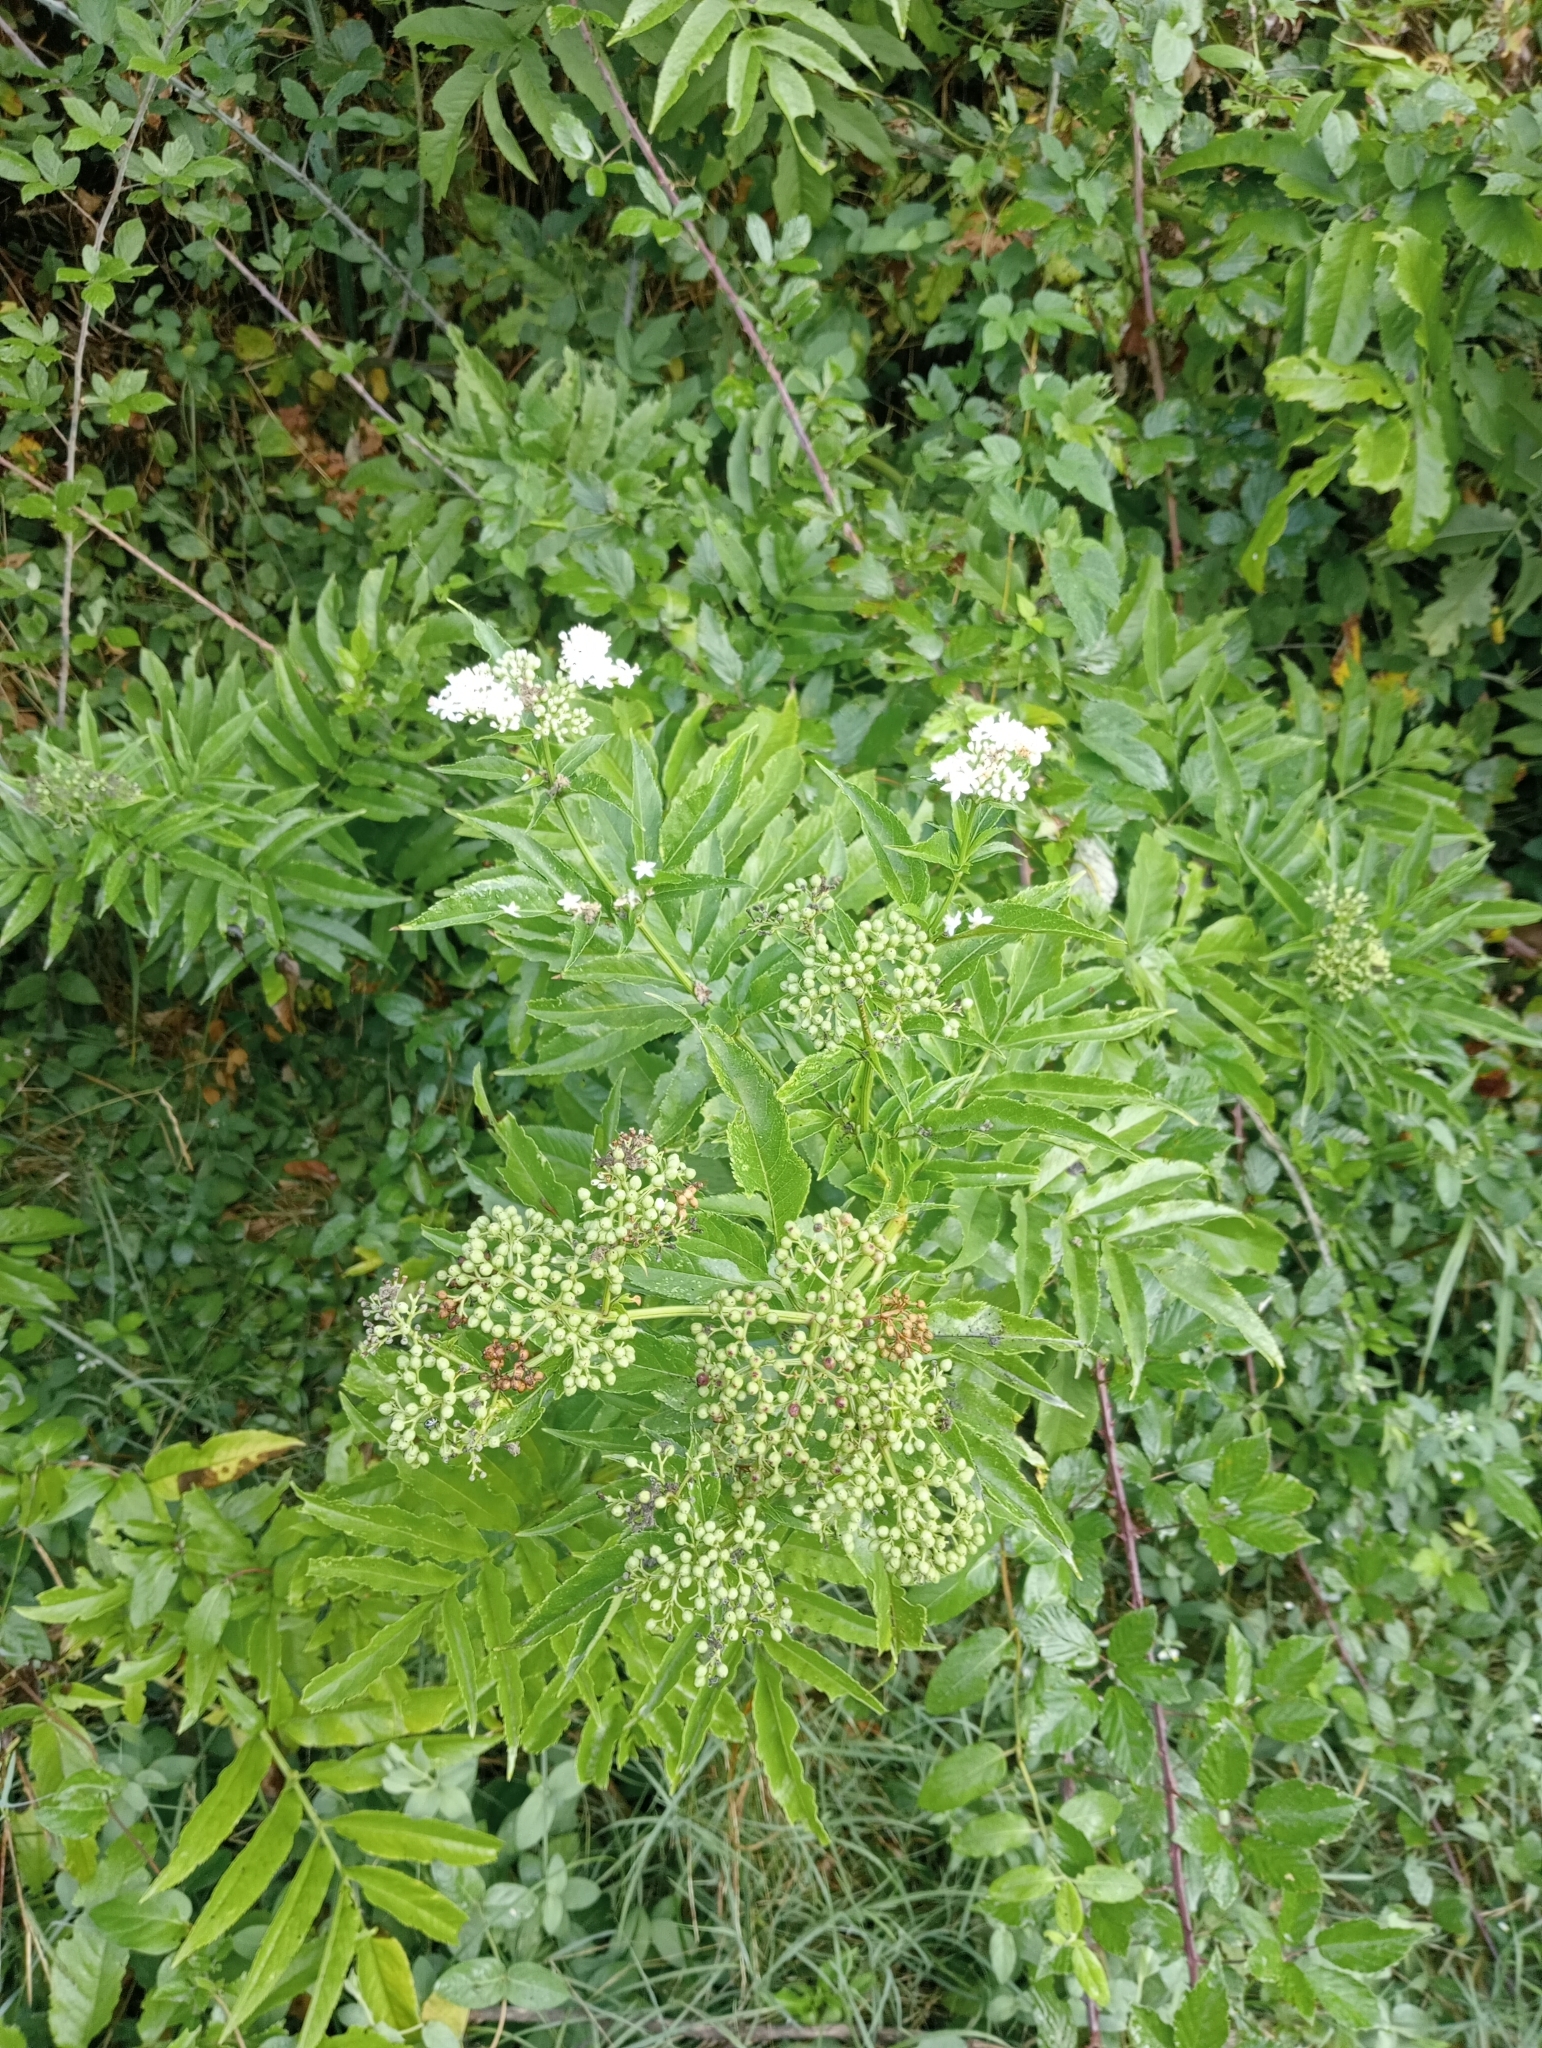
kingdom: Plantae
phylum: Tracheophyta
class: Magnoliopsida
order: Dipsacales
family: Viburnaceae
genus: Sambucus
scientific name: Sambucus ebulus
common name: Dwarf elder
